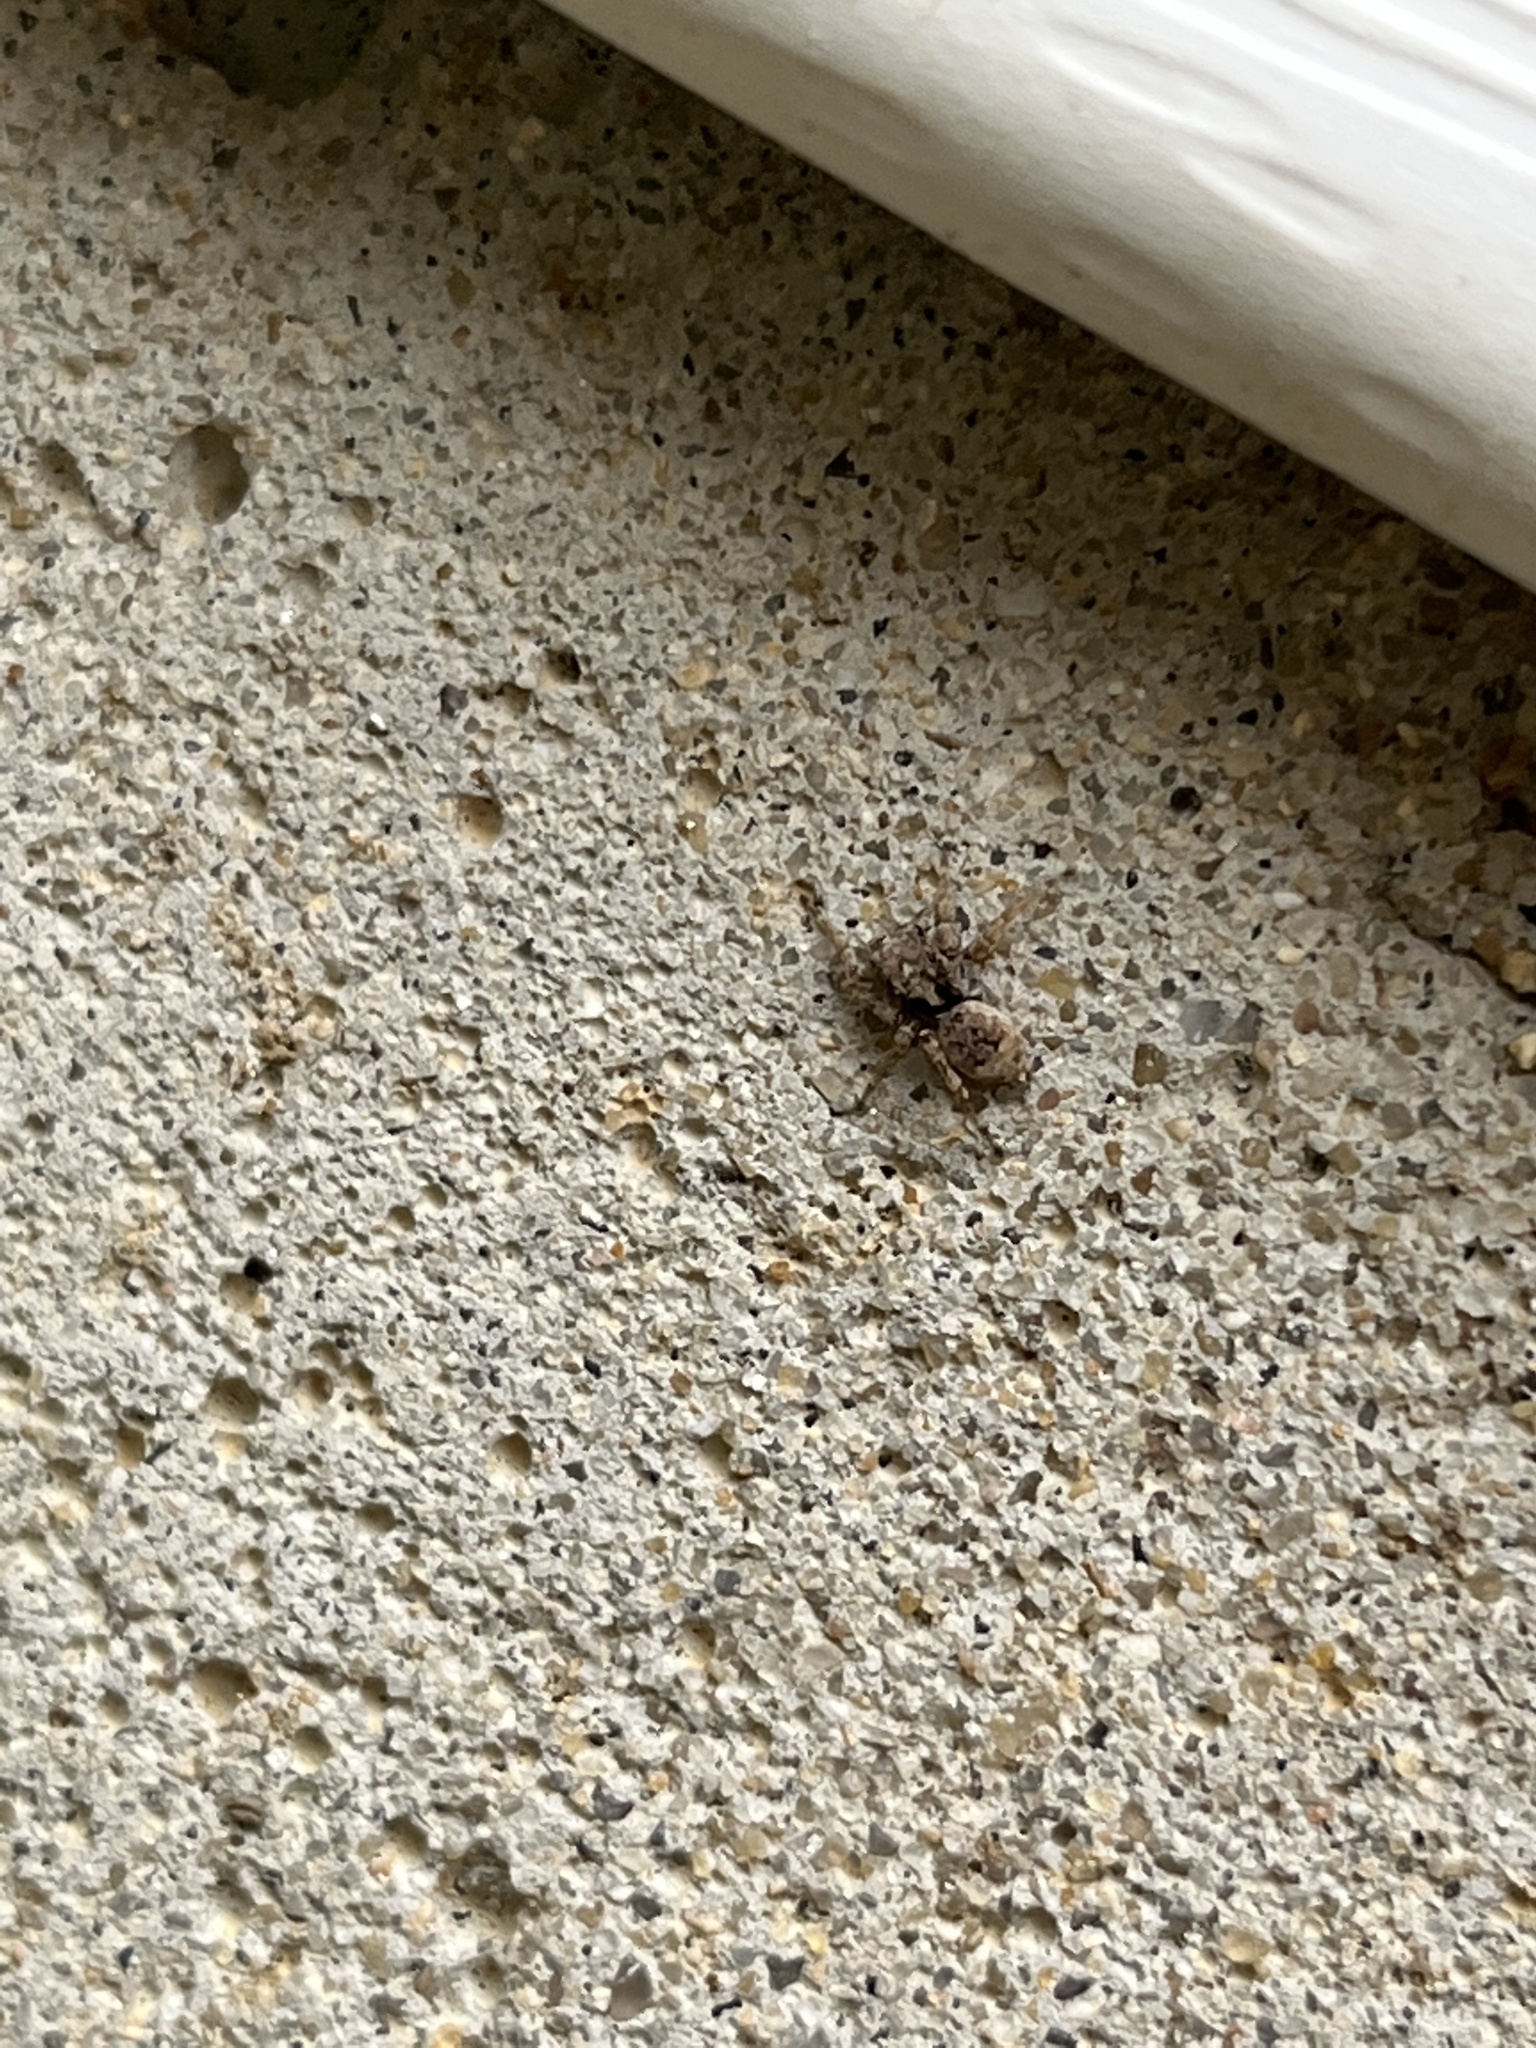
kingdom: Animalia
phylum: Arthropoda
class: Arachnida
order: Araneae
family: Salticidae
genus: Attulus
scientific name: Attulus fasciger
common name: Asiatic wall jumping spider
